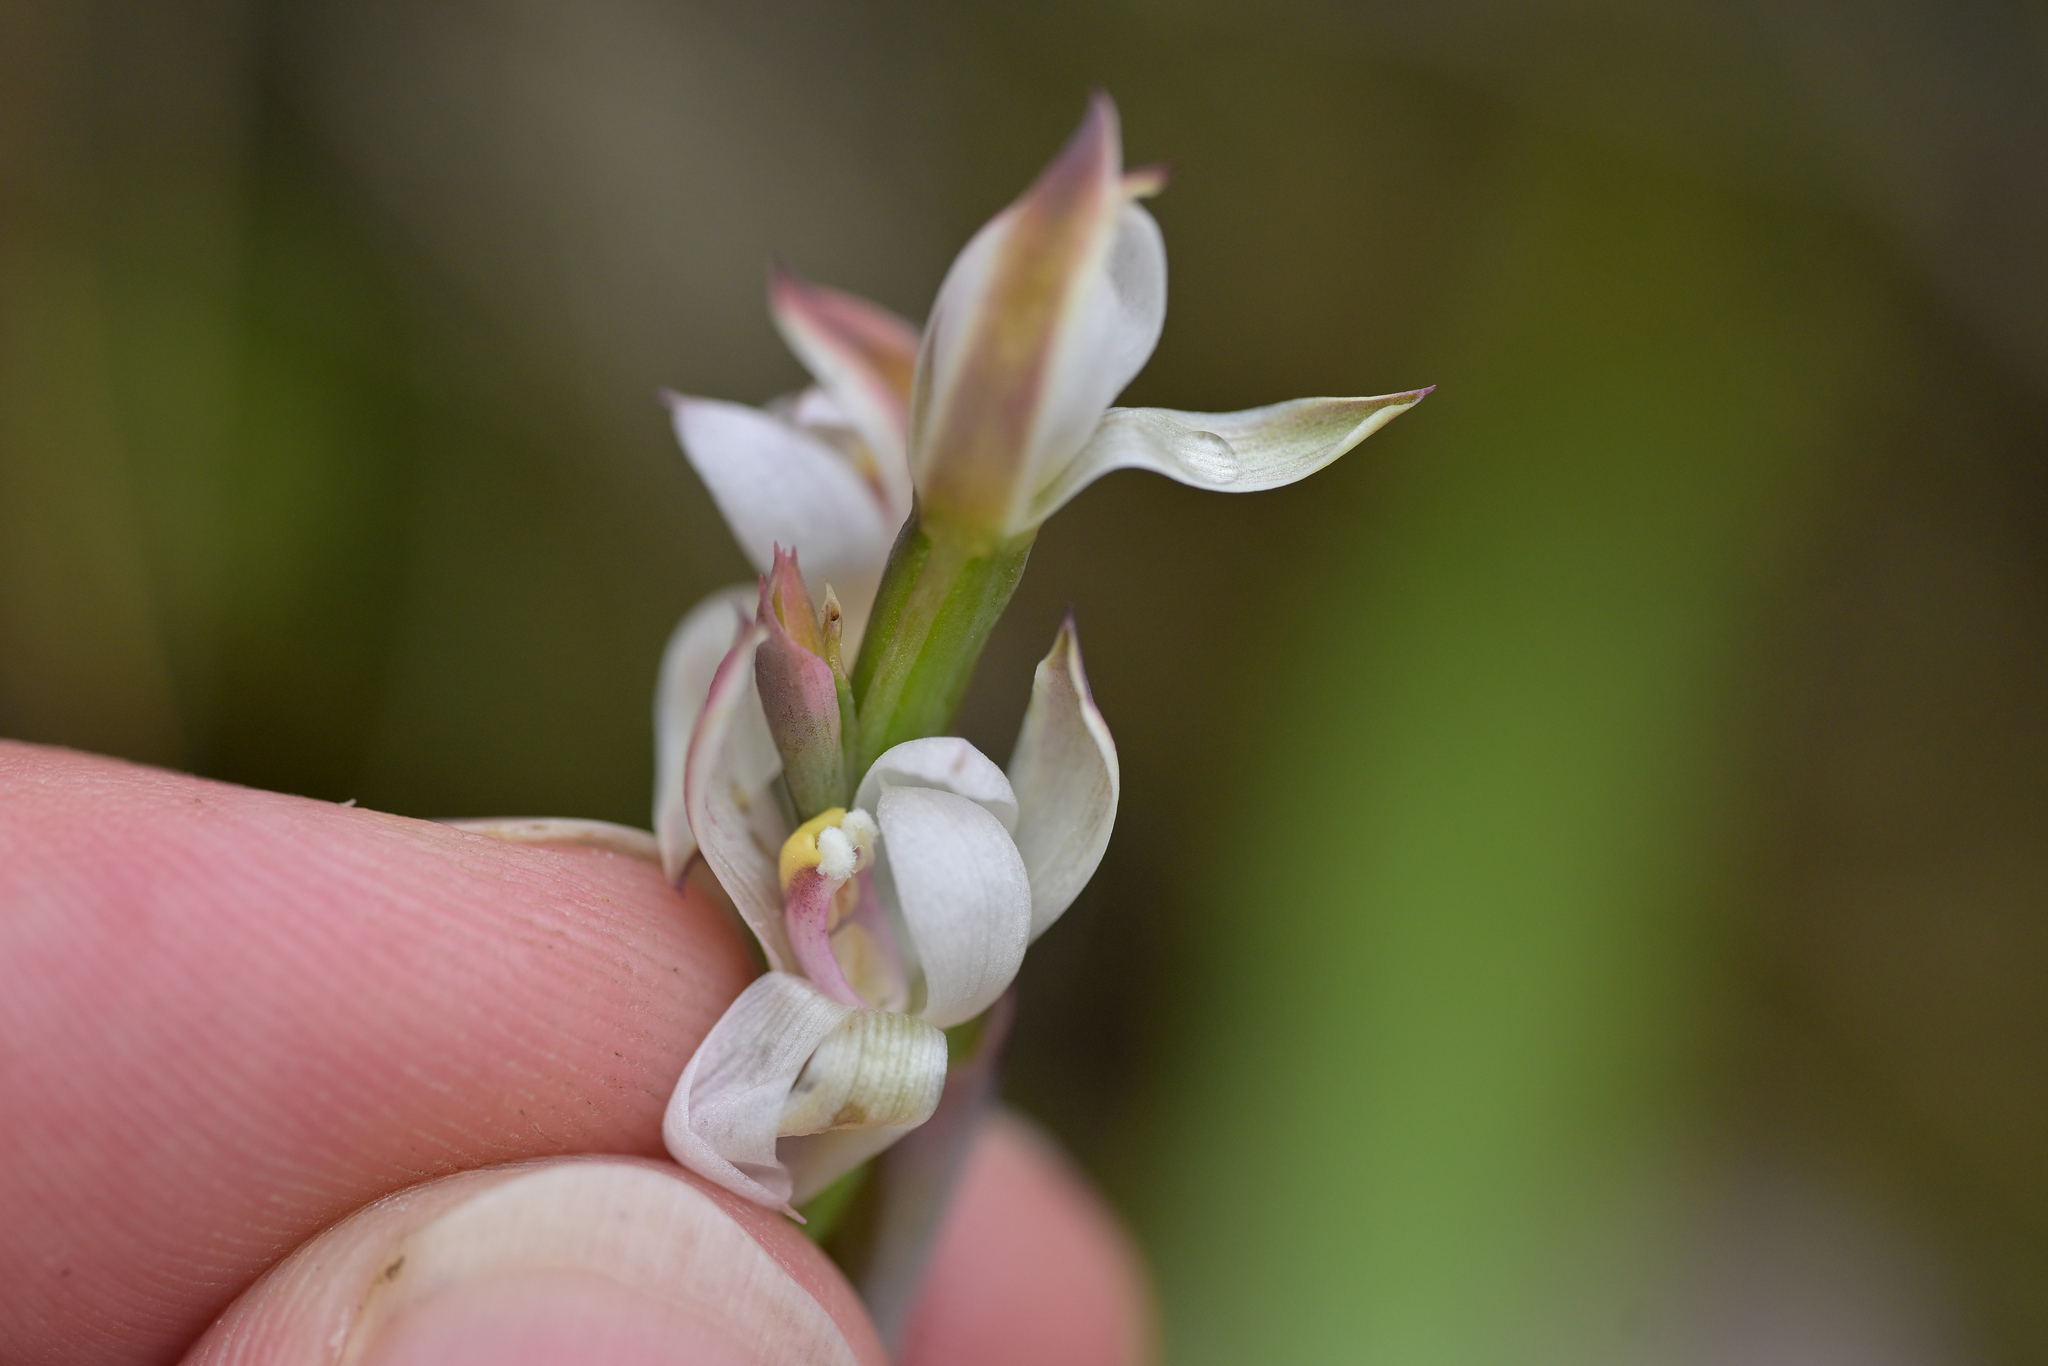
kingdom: Plantae
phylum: Tracheophyta
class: Liliopsida
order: Asparagales
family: Orchidaceae
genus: Thelymitra
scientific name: Thelymitra longifolia
